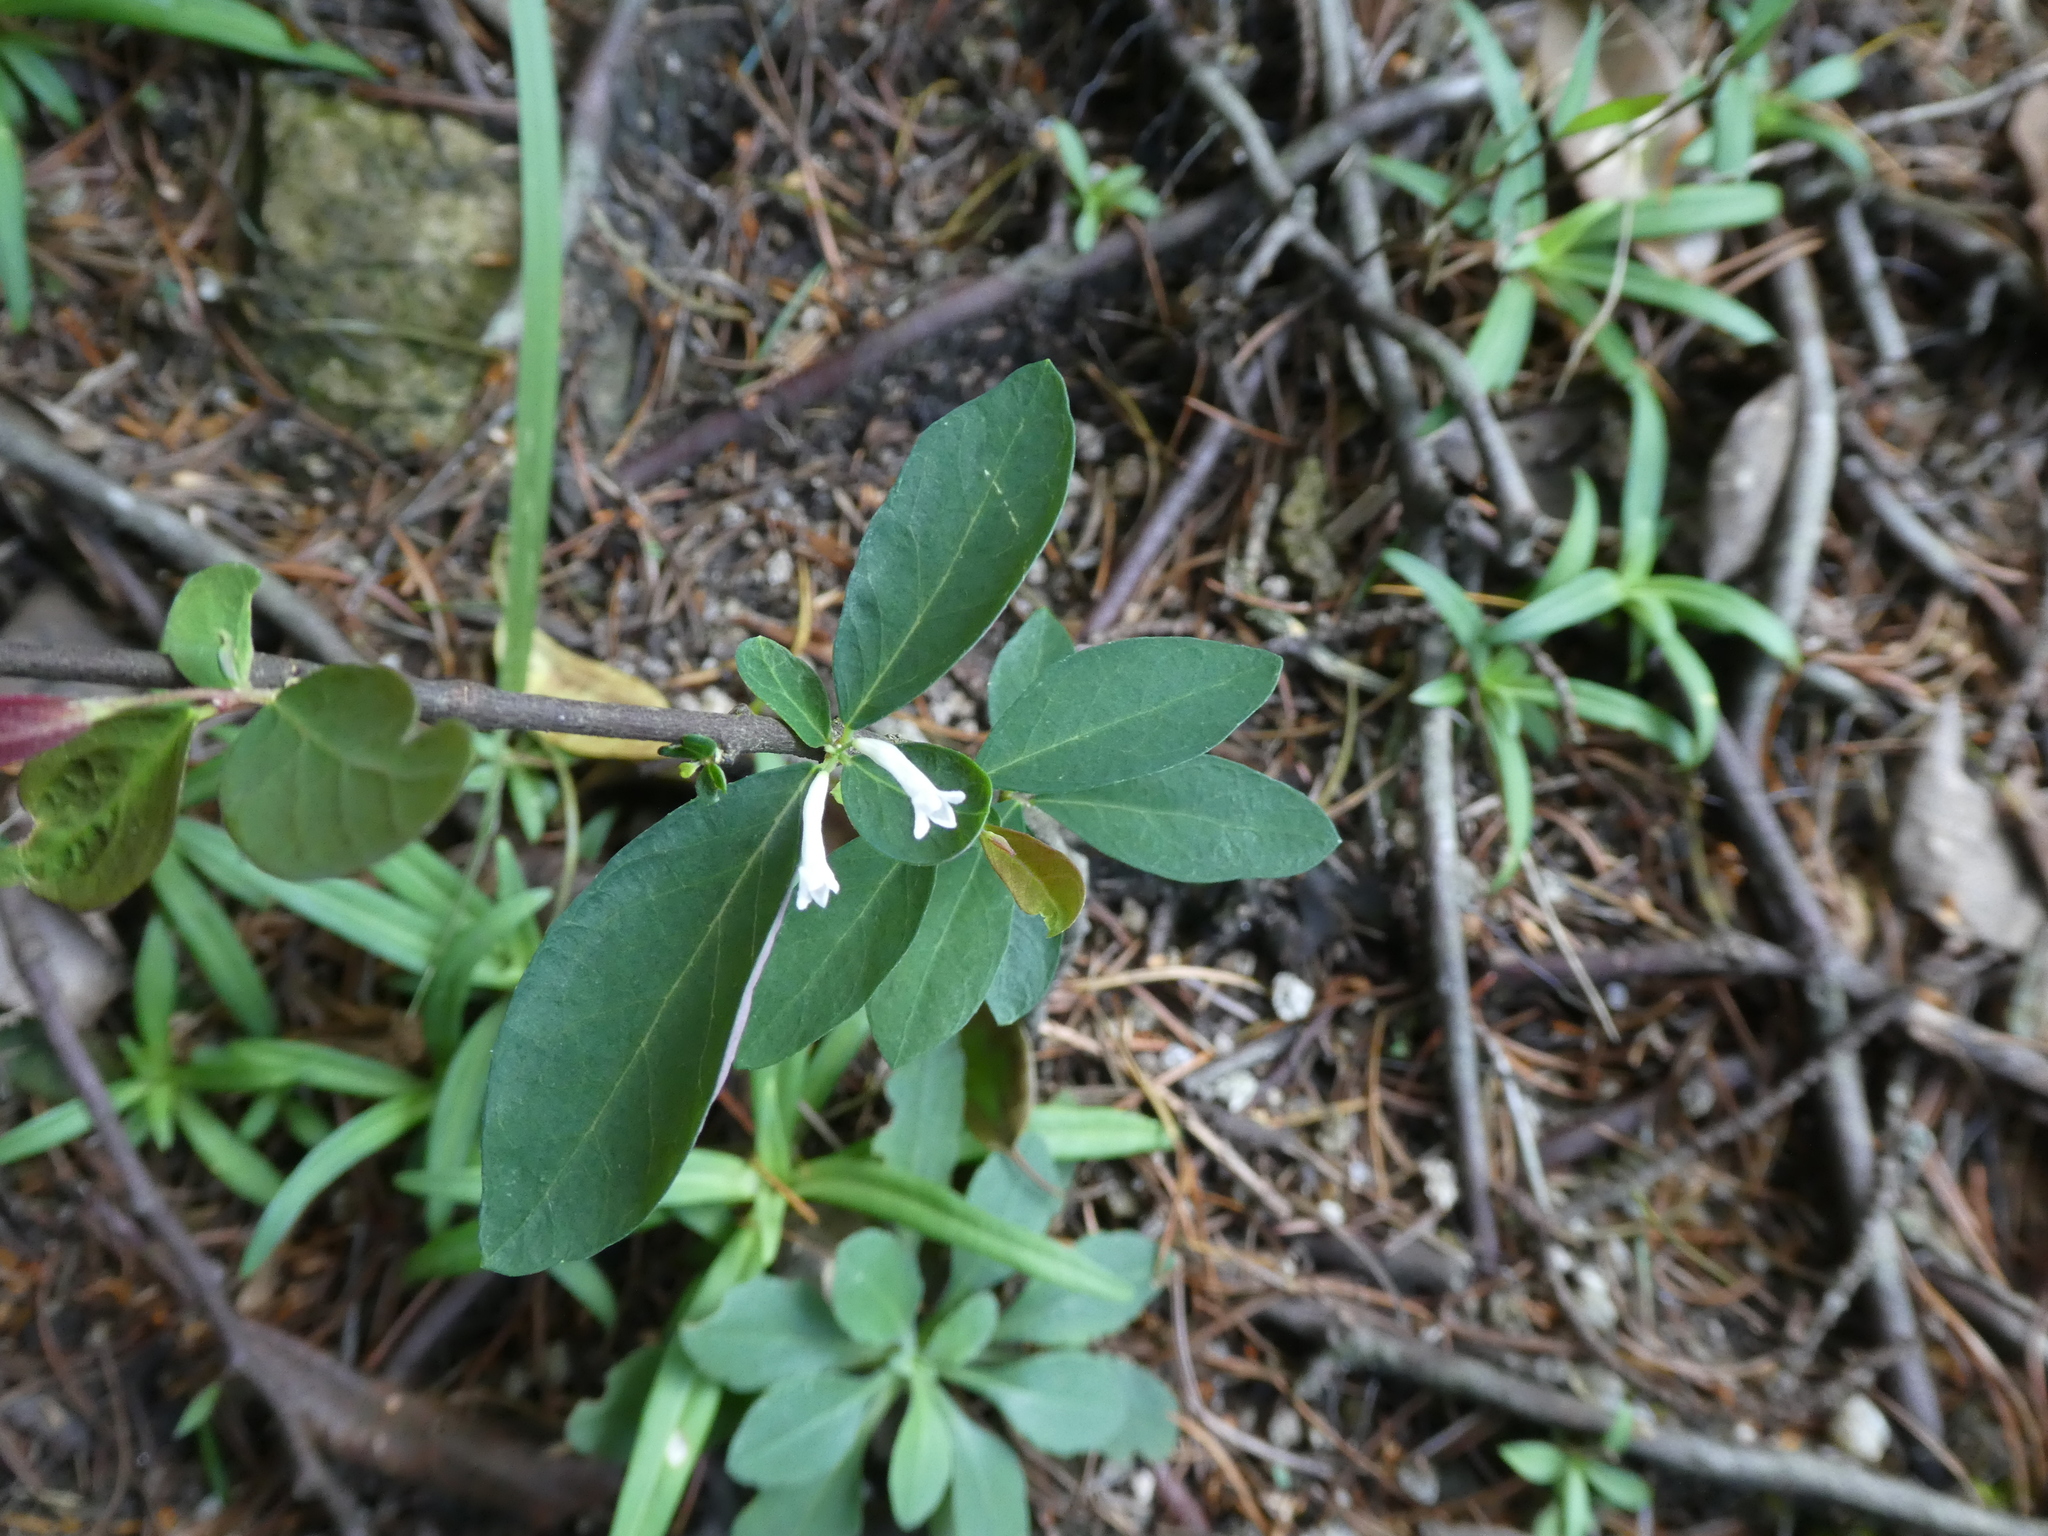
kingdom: Plantae
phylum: Tracheophyta
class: Magnoliopsida
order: Malvales
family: Thymelaeaceae
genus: Wikstroemia
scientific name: Wikstroemia monnula
